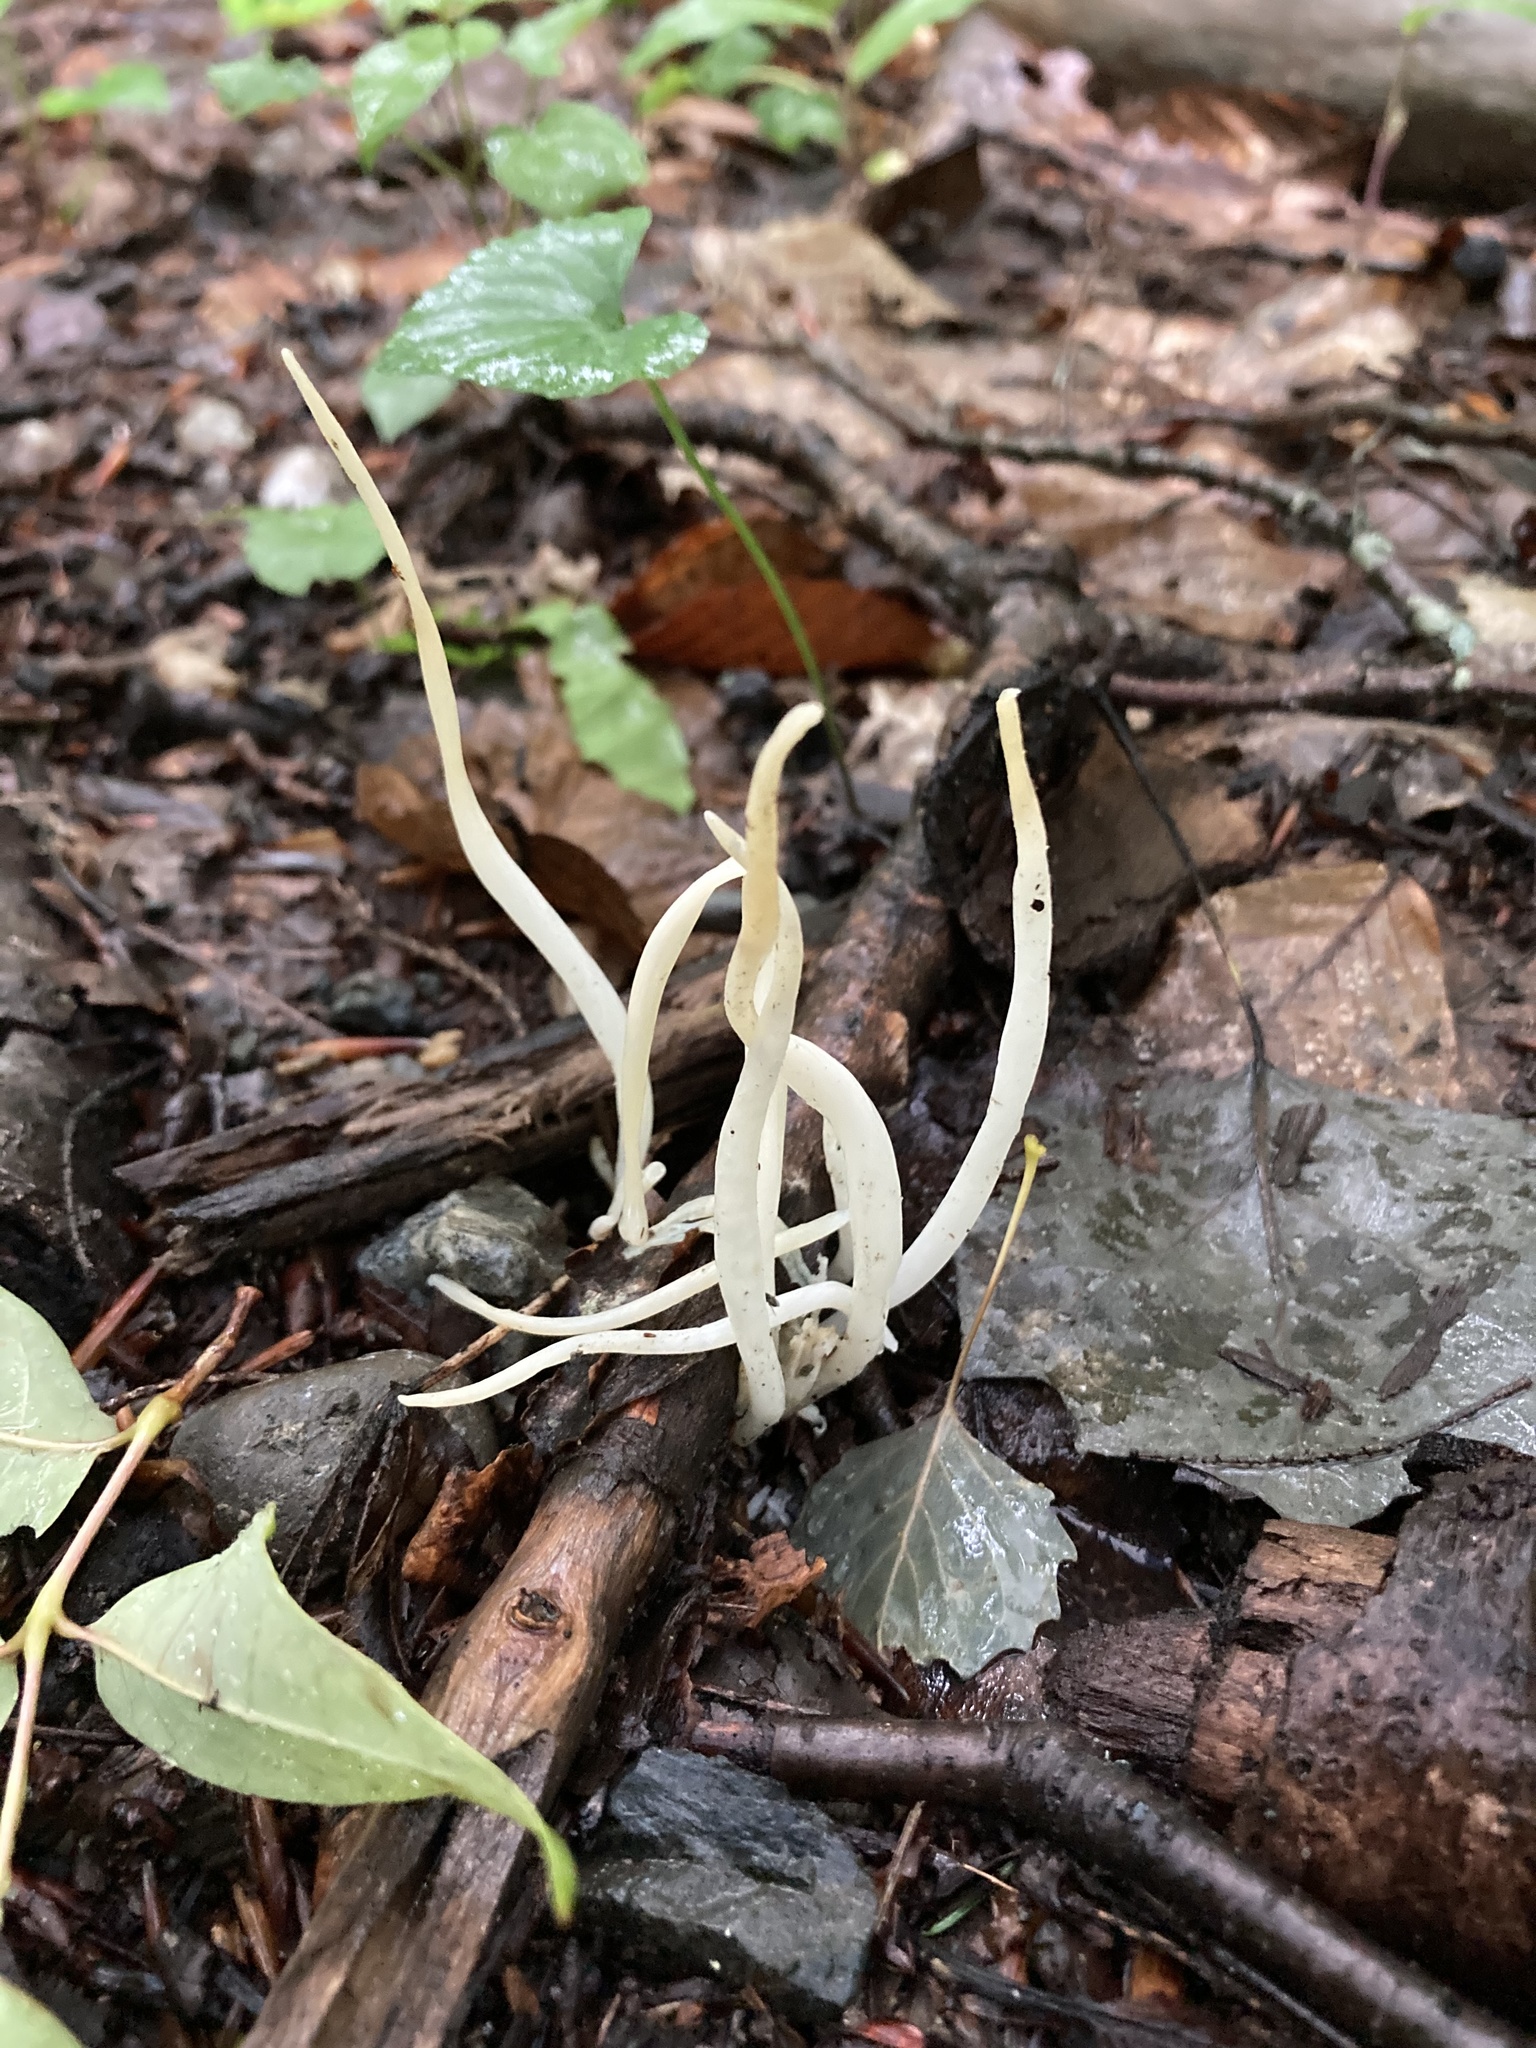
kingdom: Fungi
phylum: Basidiomycota
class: Agaricomycetes
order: Agaricales
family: Clavariaceae
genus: Clavaria
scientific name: Clavaria fragilis
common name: White spindles
